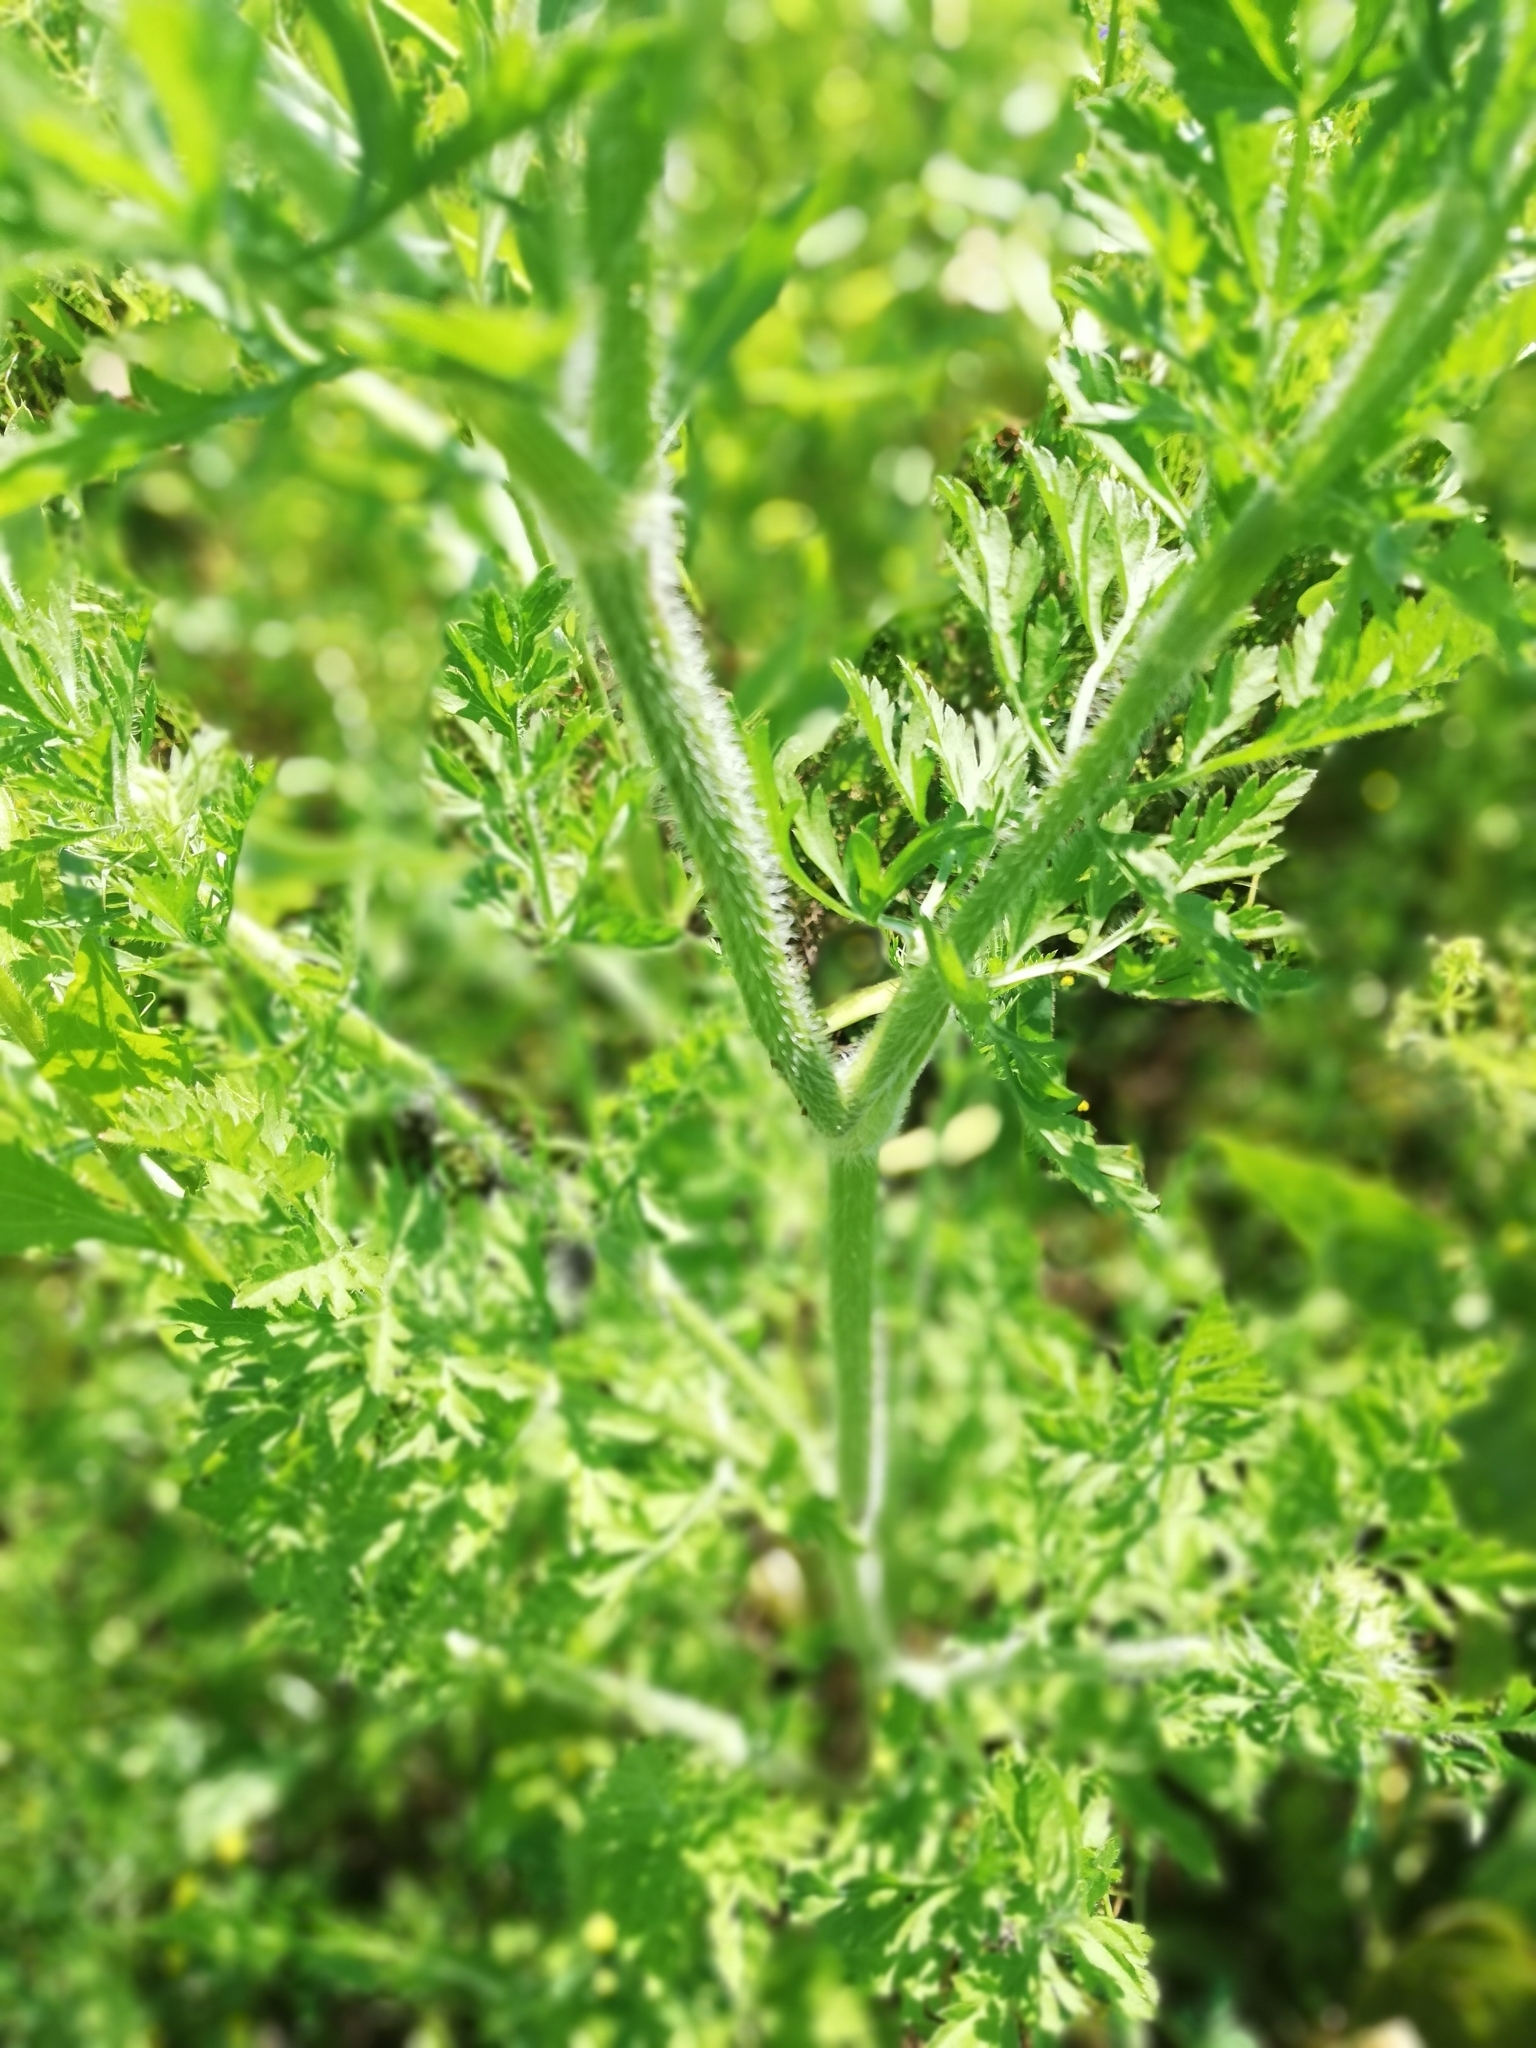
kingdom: Plantae
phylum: Tracheophyta
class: Magnoliopsida
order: Apiales
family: Apiaceae
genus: Daucus
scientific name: Daucus carota
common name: Wild carrot
